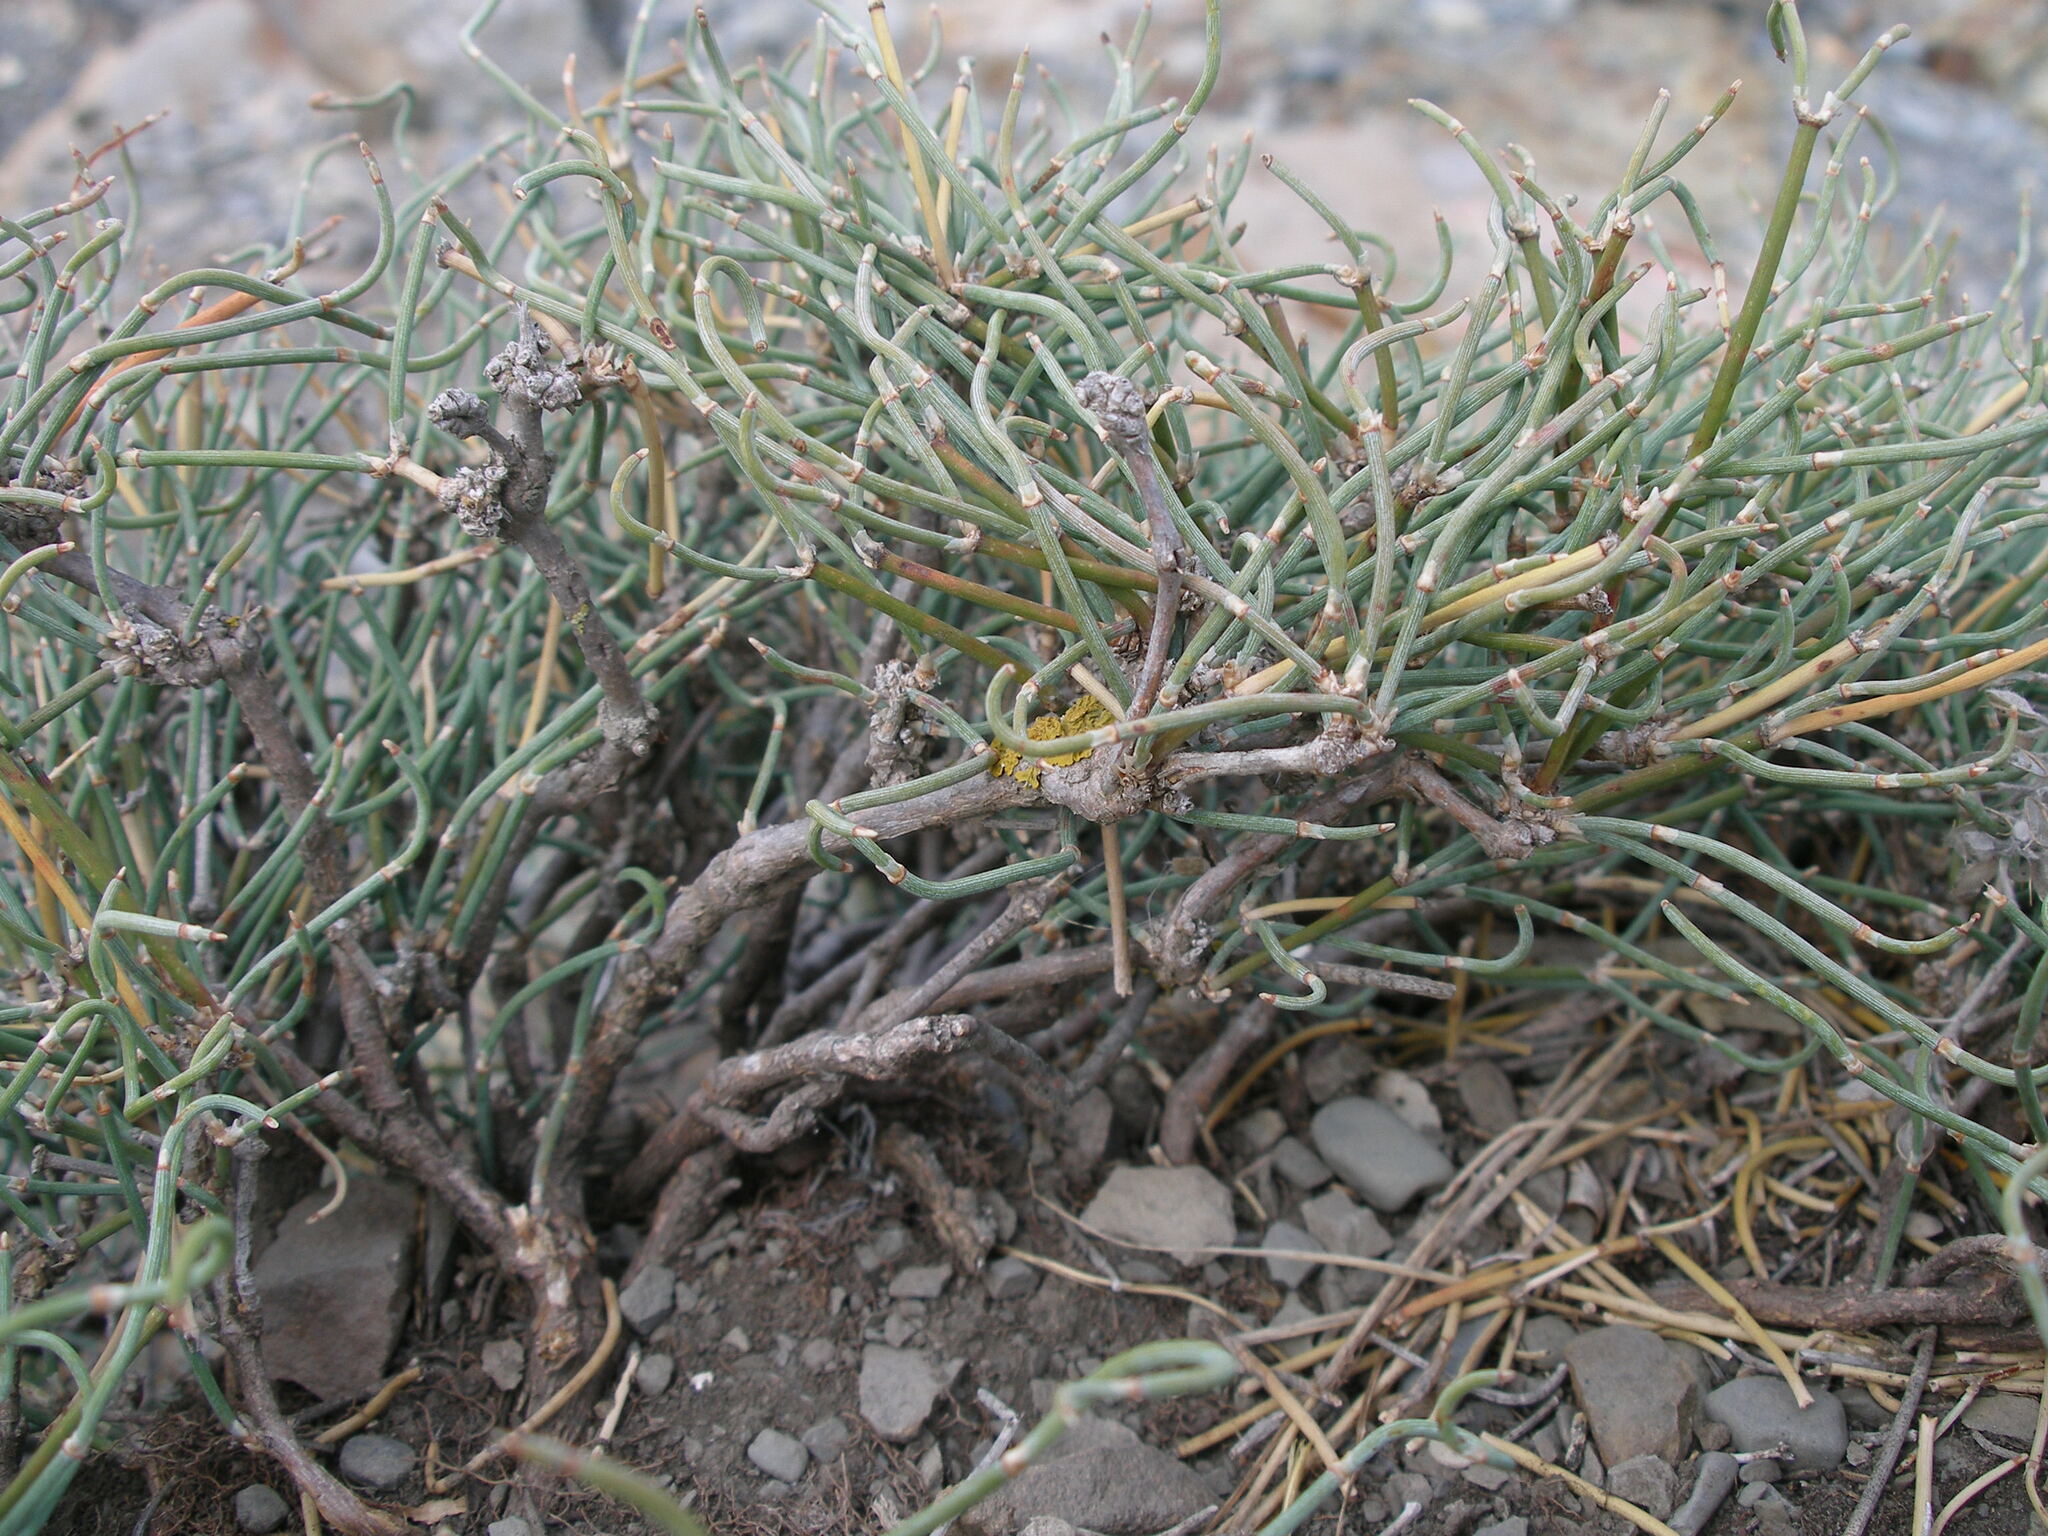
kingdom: Plantae
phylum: Tracheophyta
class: Gnetopsida
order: Ephedrales
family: Ephedraceae
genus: Ephedra
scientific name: Ephedra distachya
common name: Sea grape
